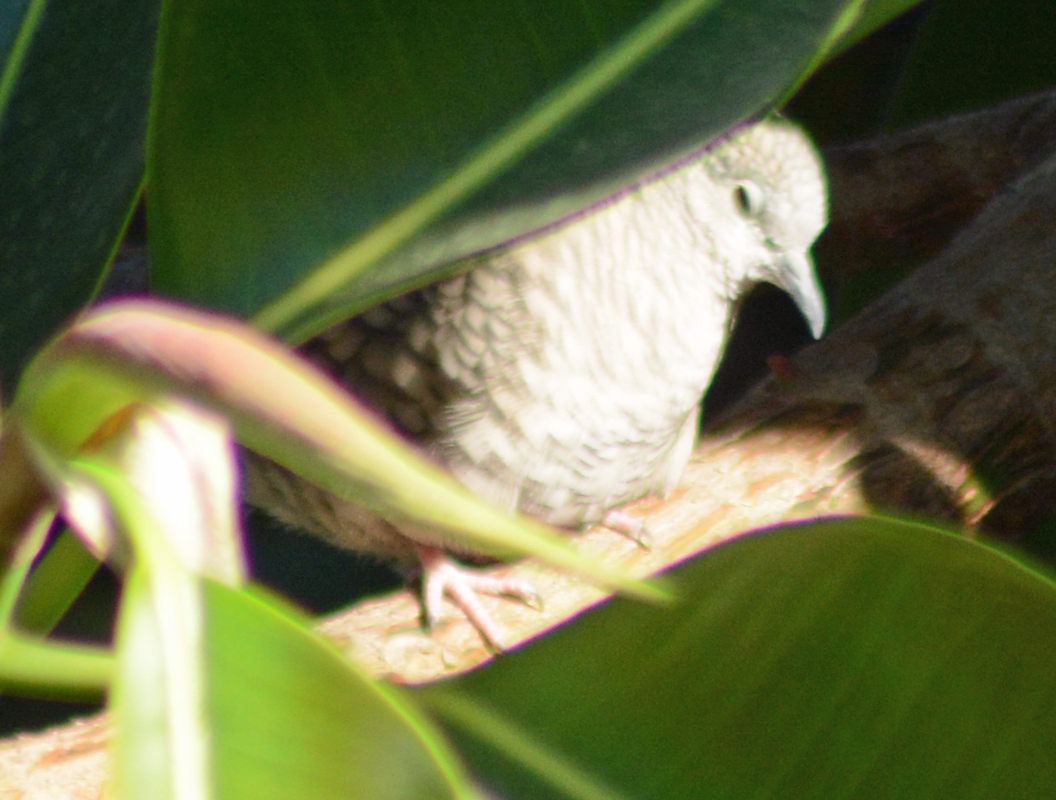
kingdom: Animalia
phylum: Chordata
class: Aves
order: Columbiformes
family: Columbidae
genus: Columbina
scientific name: Columbina inca
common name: Inca dove
